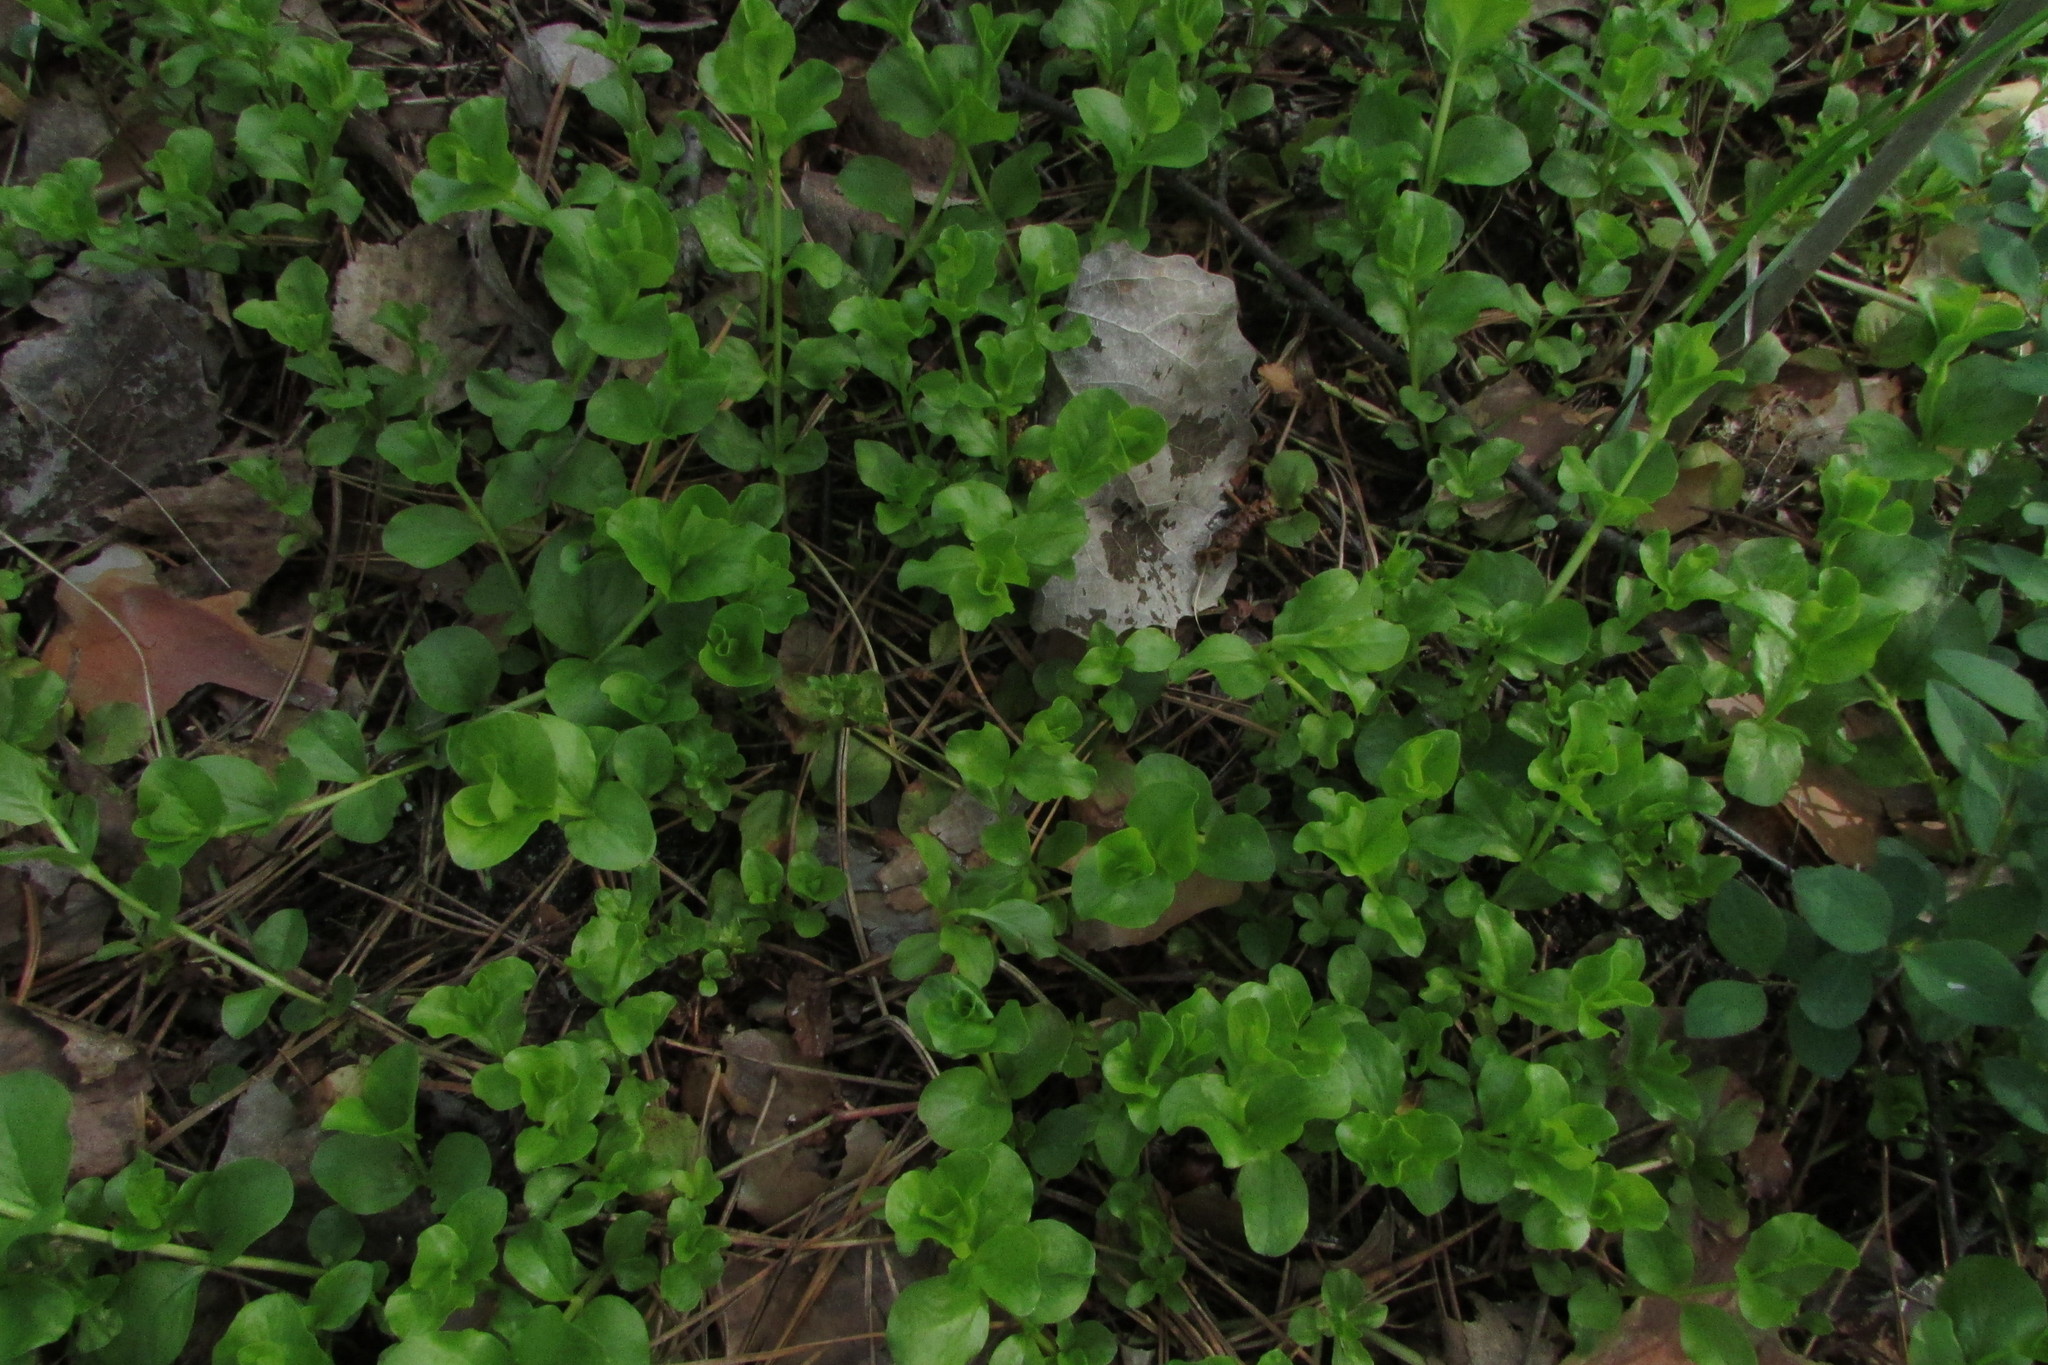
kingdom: Plantae
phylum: Tracheophyta
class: Magnoliopsida
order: Ericales
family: Primulaceae
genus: Lysimachia
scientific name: Lysimachia nummularia
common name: Moneywort
